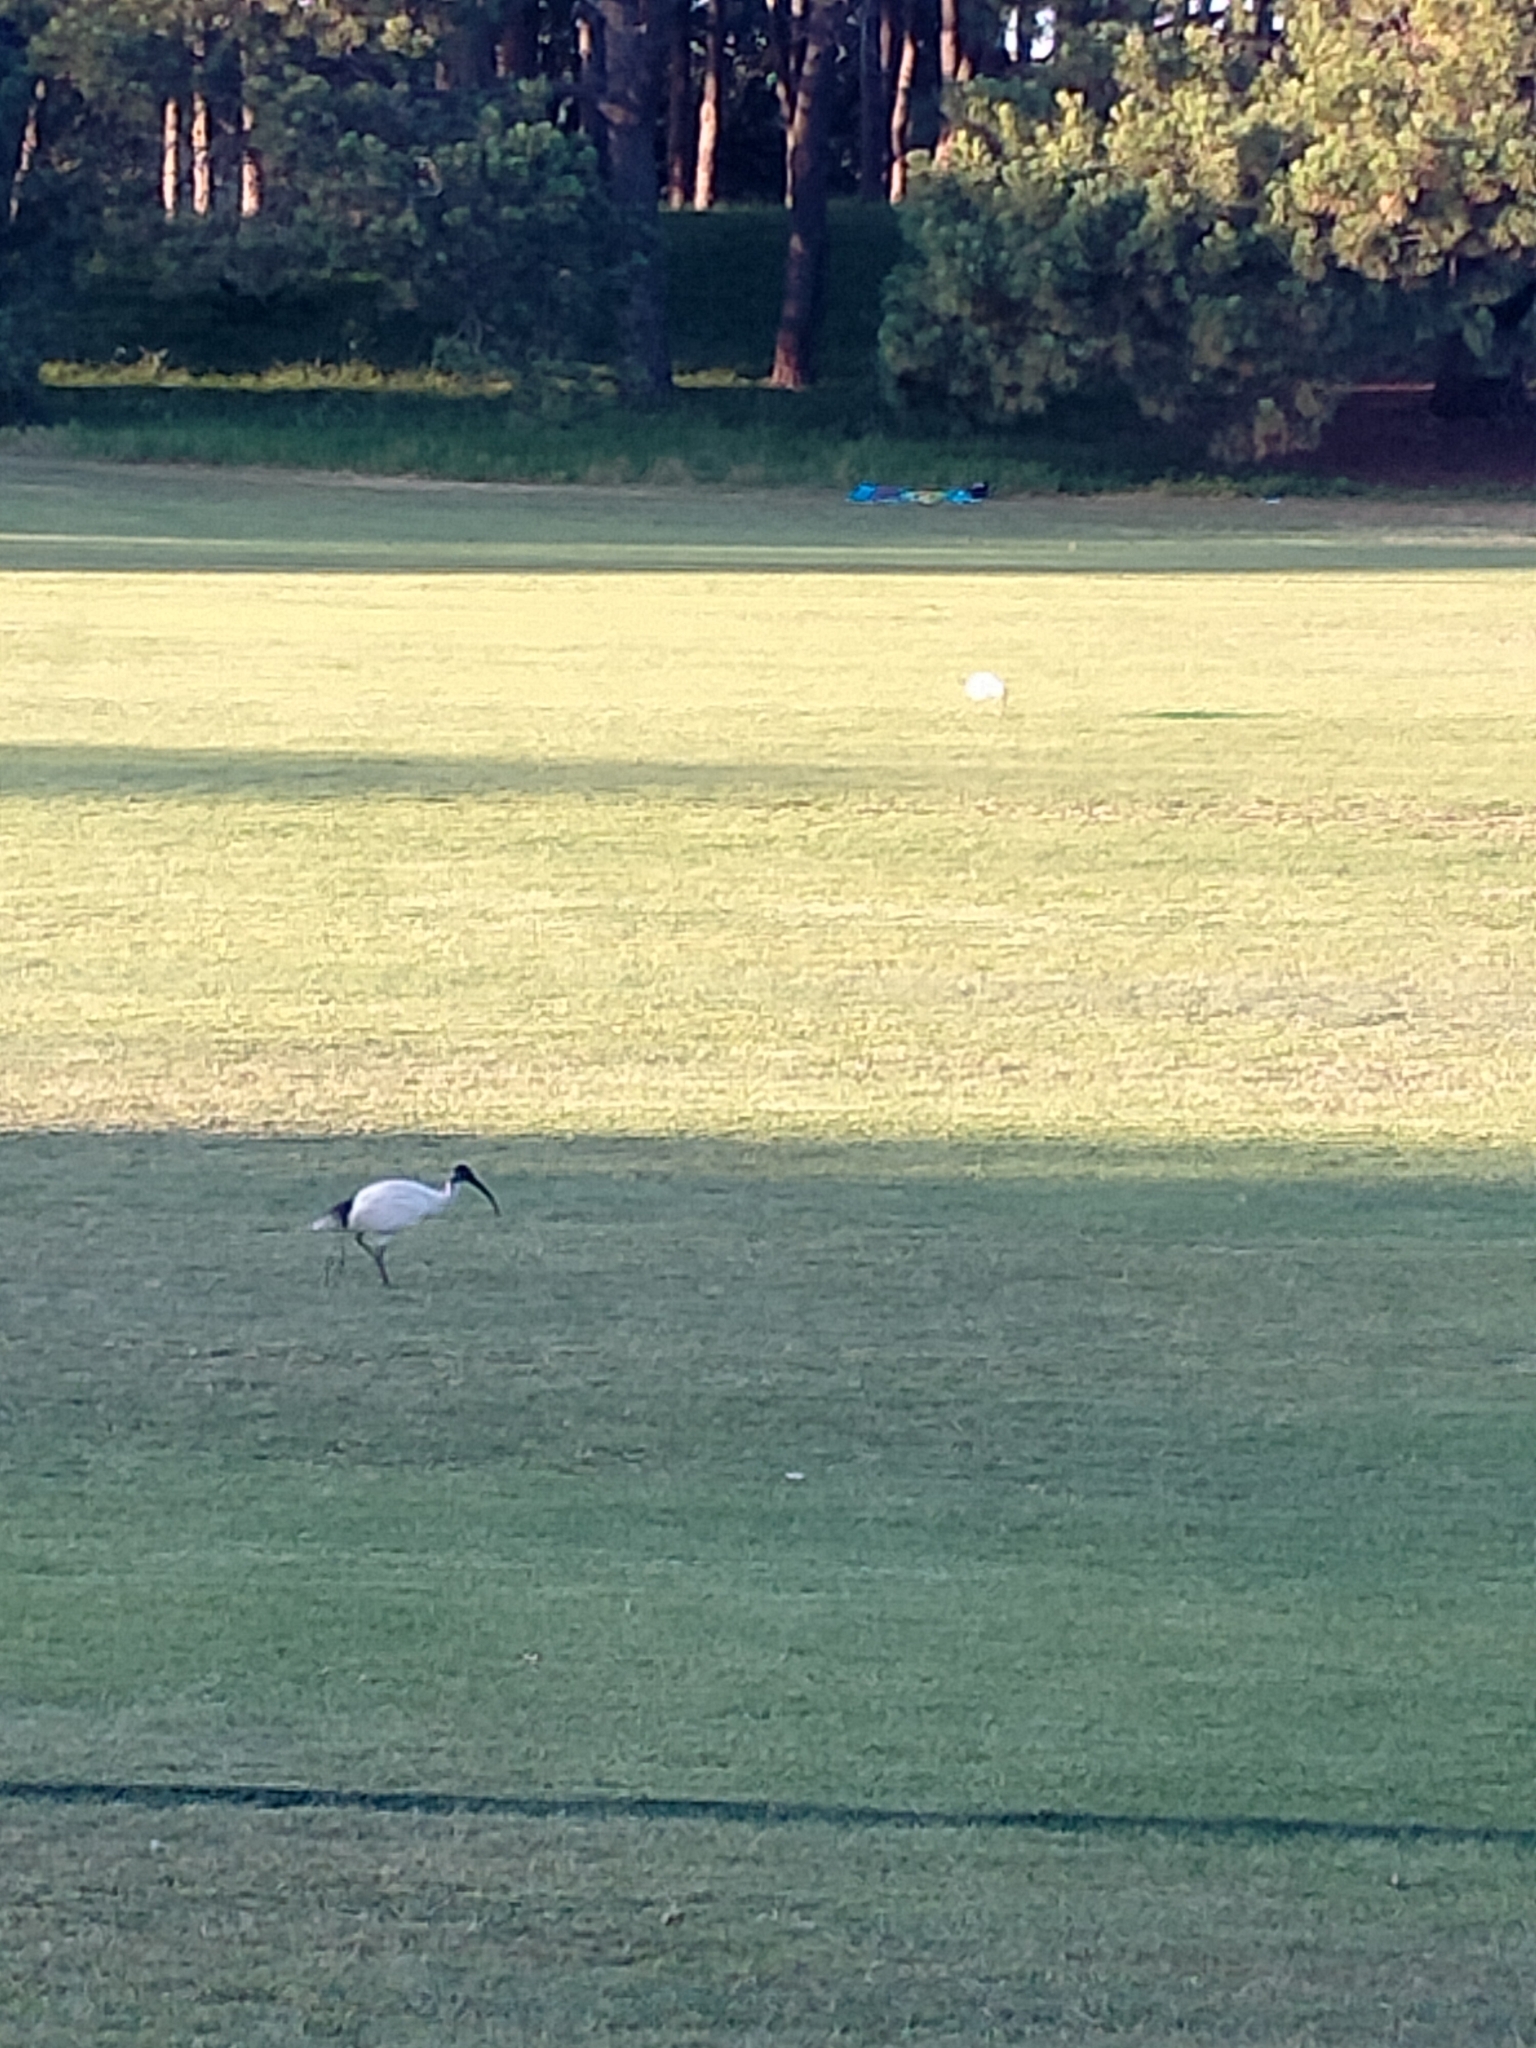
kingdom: Animalia
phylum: Chordata
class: Aves
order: Pelecaniformes
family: Threskiornithidae
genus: Threskiornis
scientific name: Threskiornis molucca
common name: Australian white ibis
